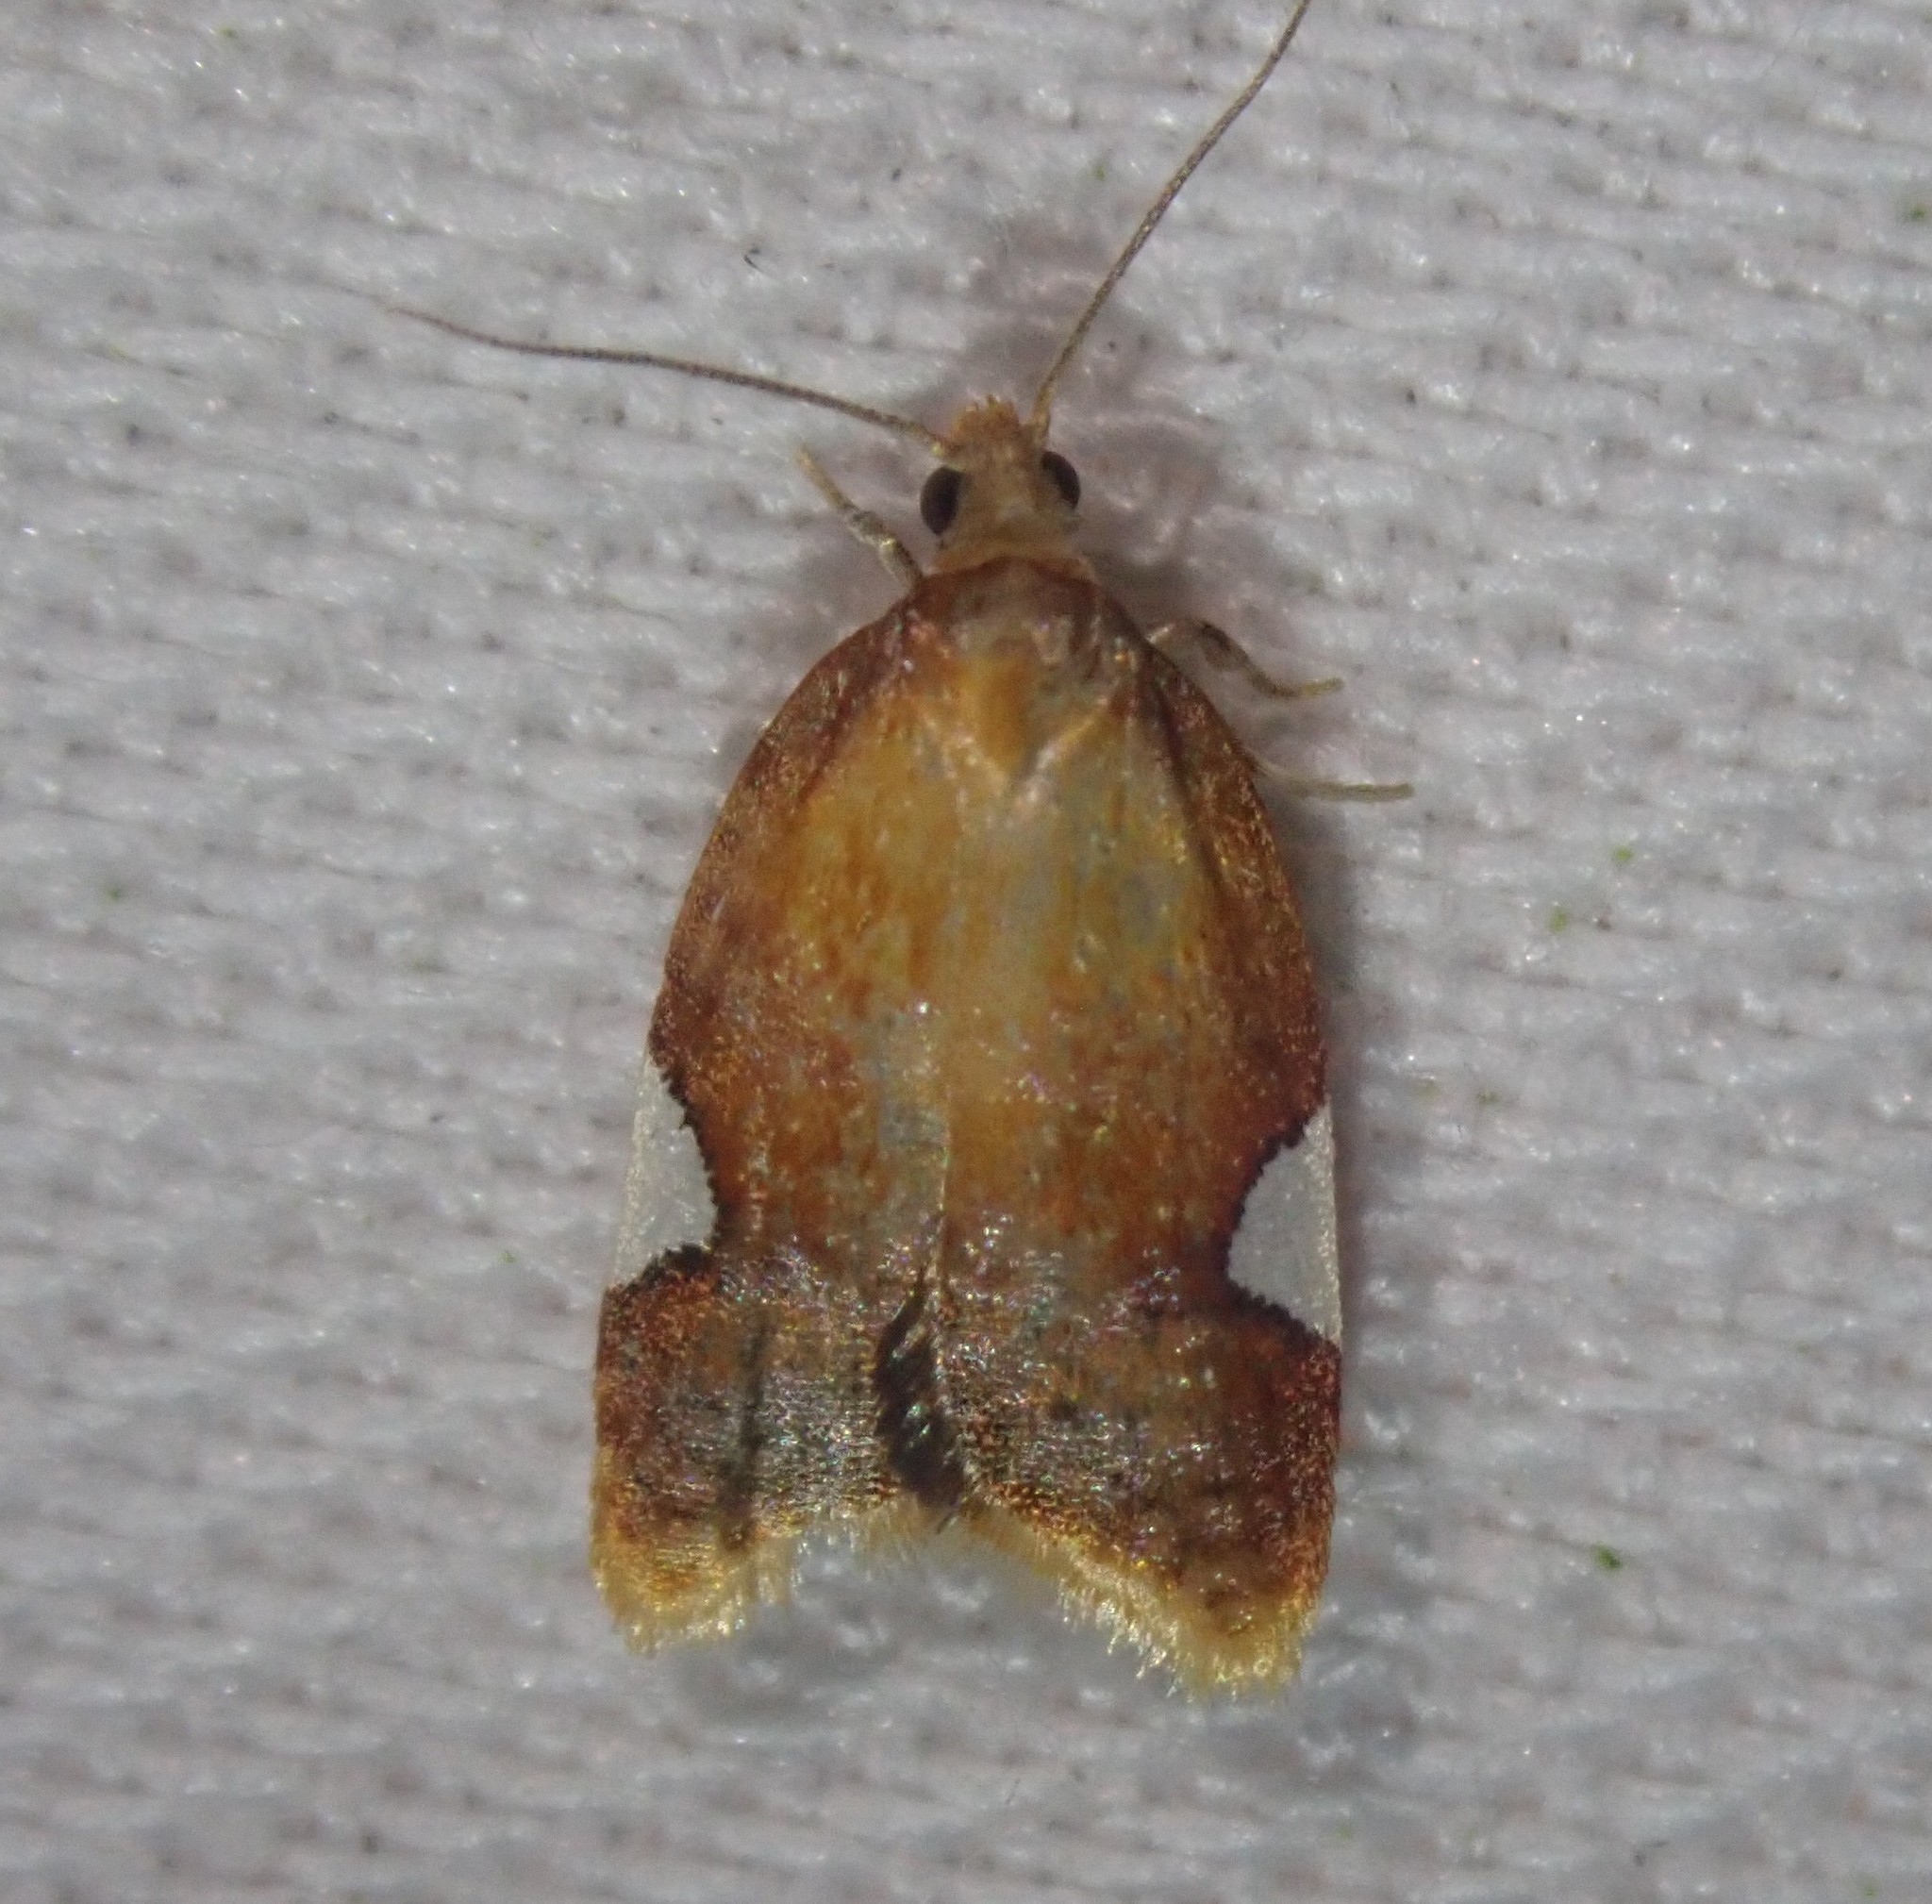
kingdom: Animalia
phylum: Arthropoda
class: Insecta
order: Lepidoptera
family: Tortricidae
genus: Acleris
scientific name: Acleris holmiana
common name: Golden leafroller moth
